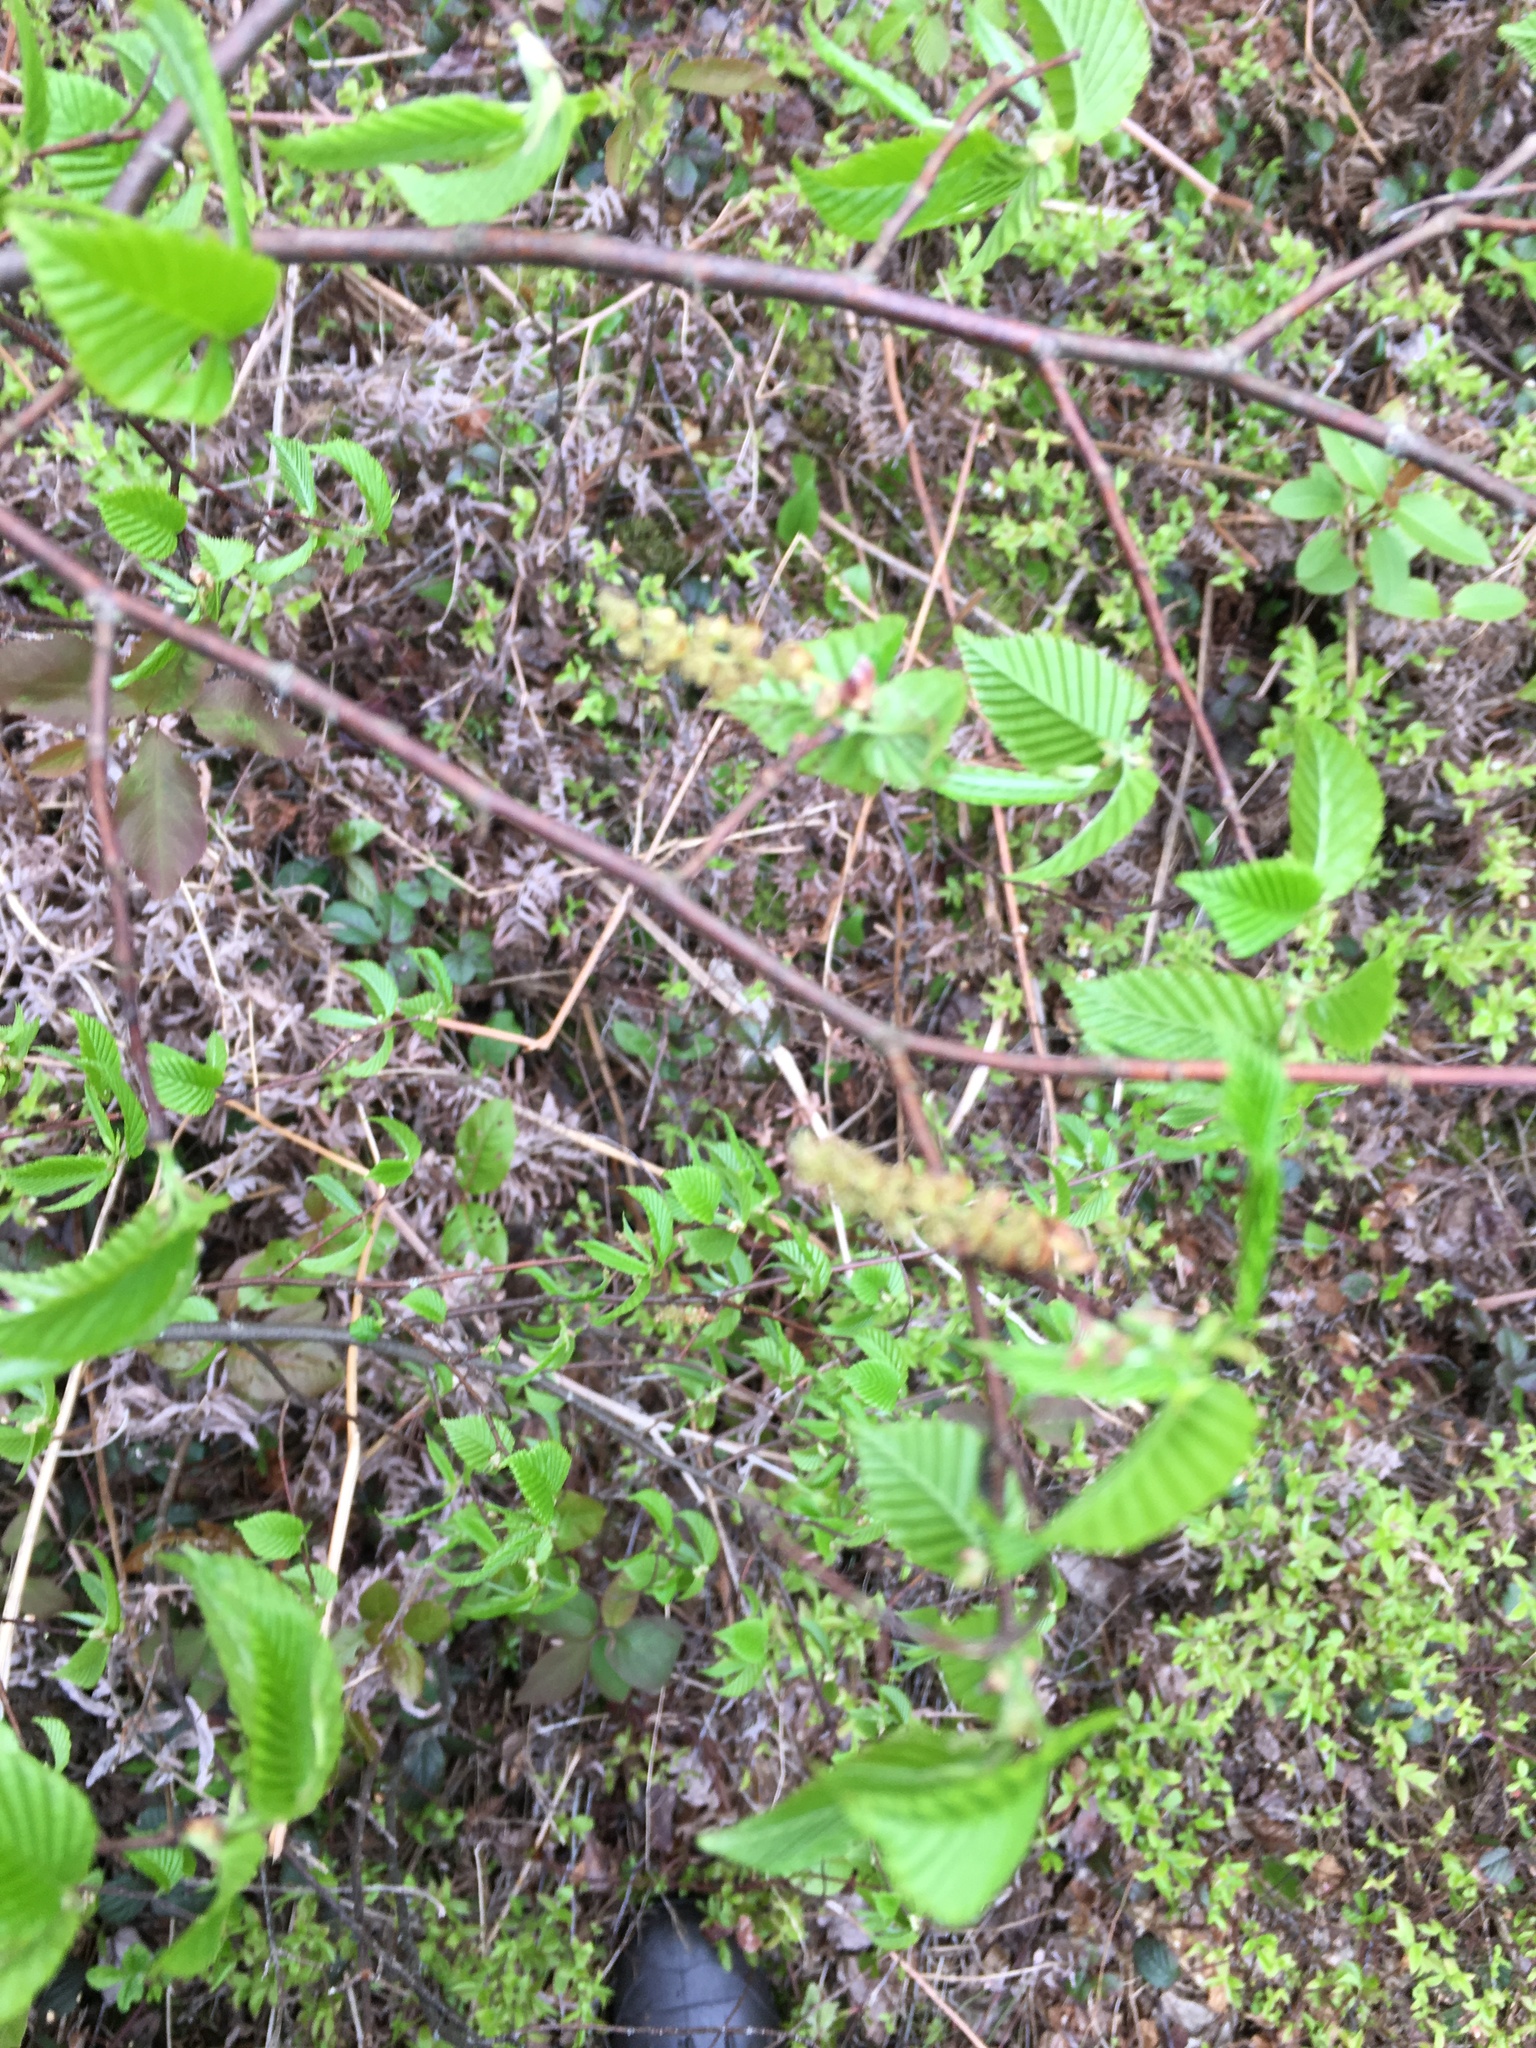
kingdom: Plantae
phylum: Tracheophyta
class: Magnoliopsida
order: Fagales
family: Betulaceae
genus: Betula
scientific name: Betula lenta
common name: Black birch
